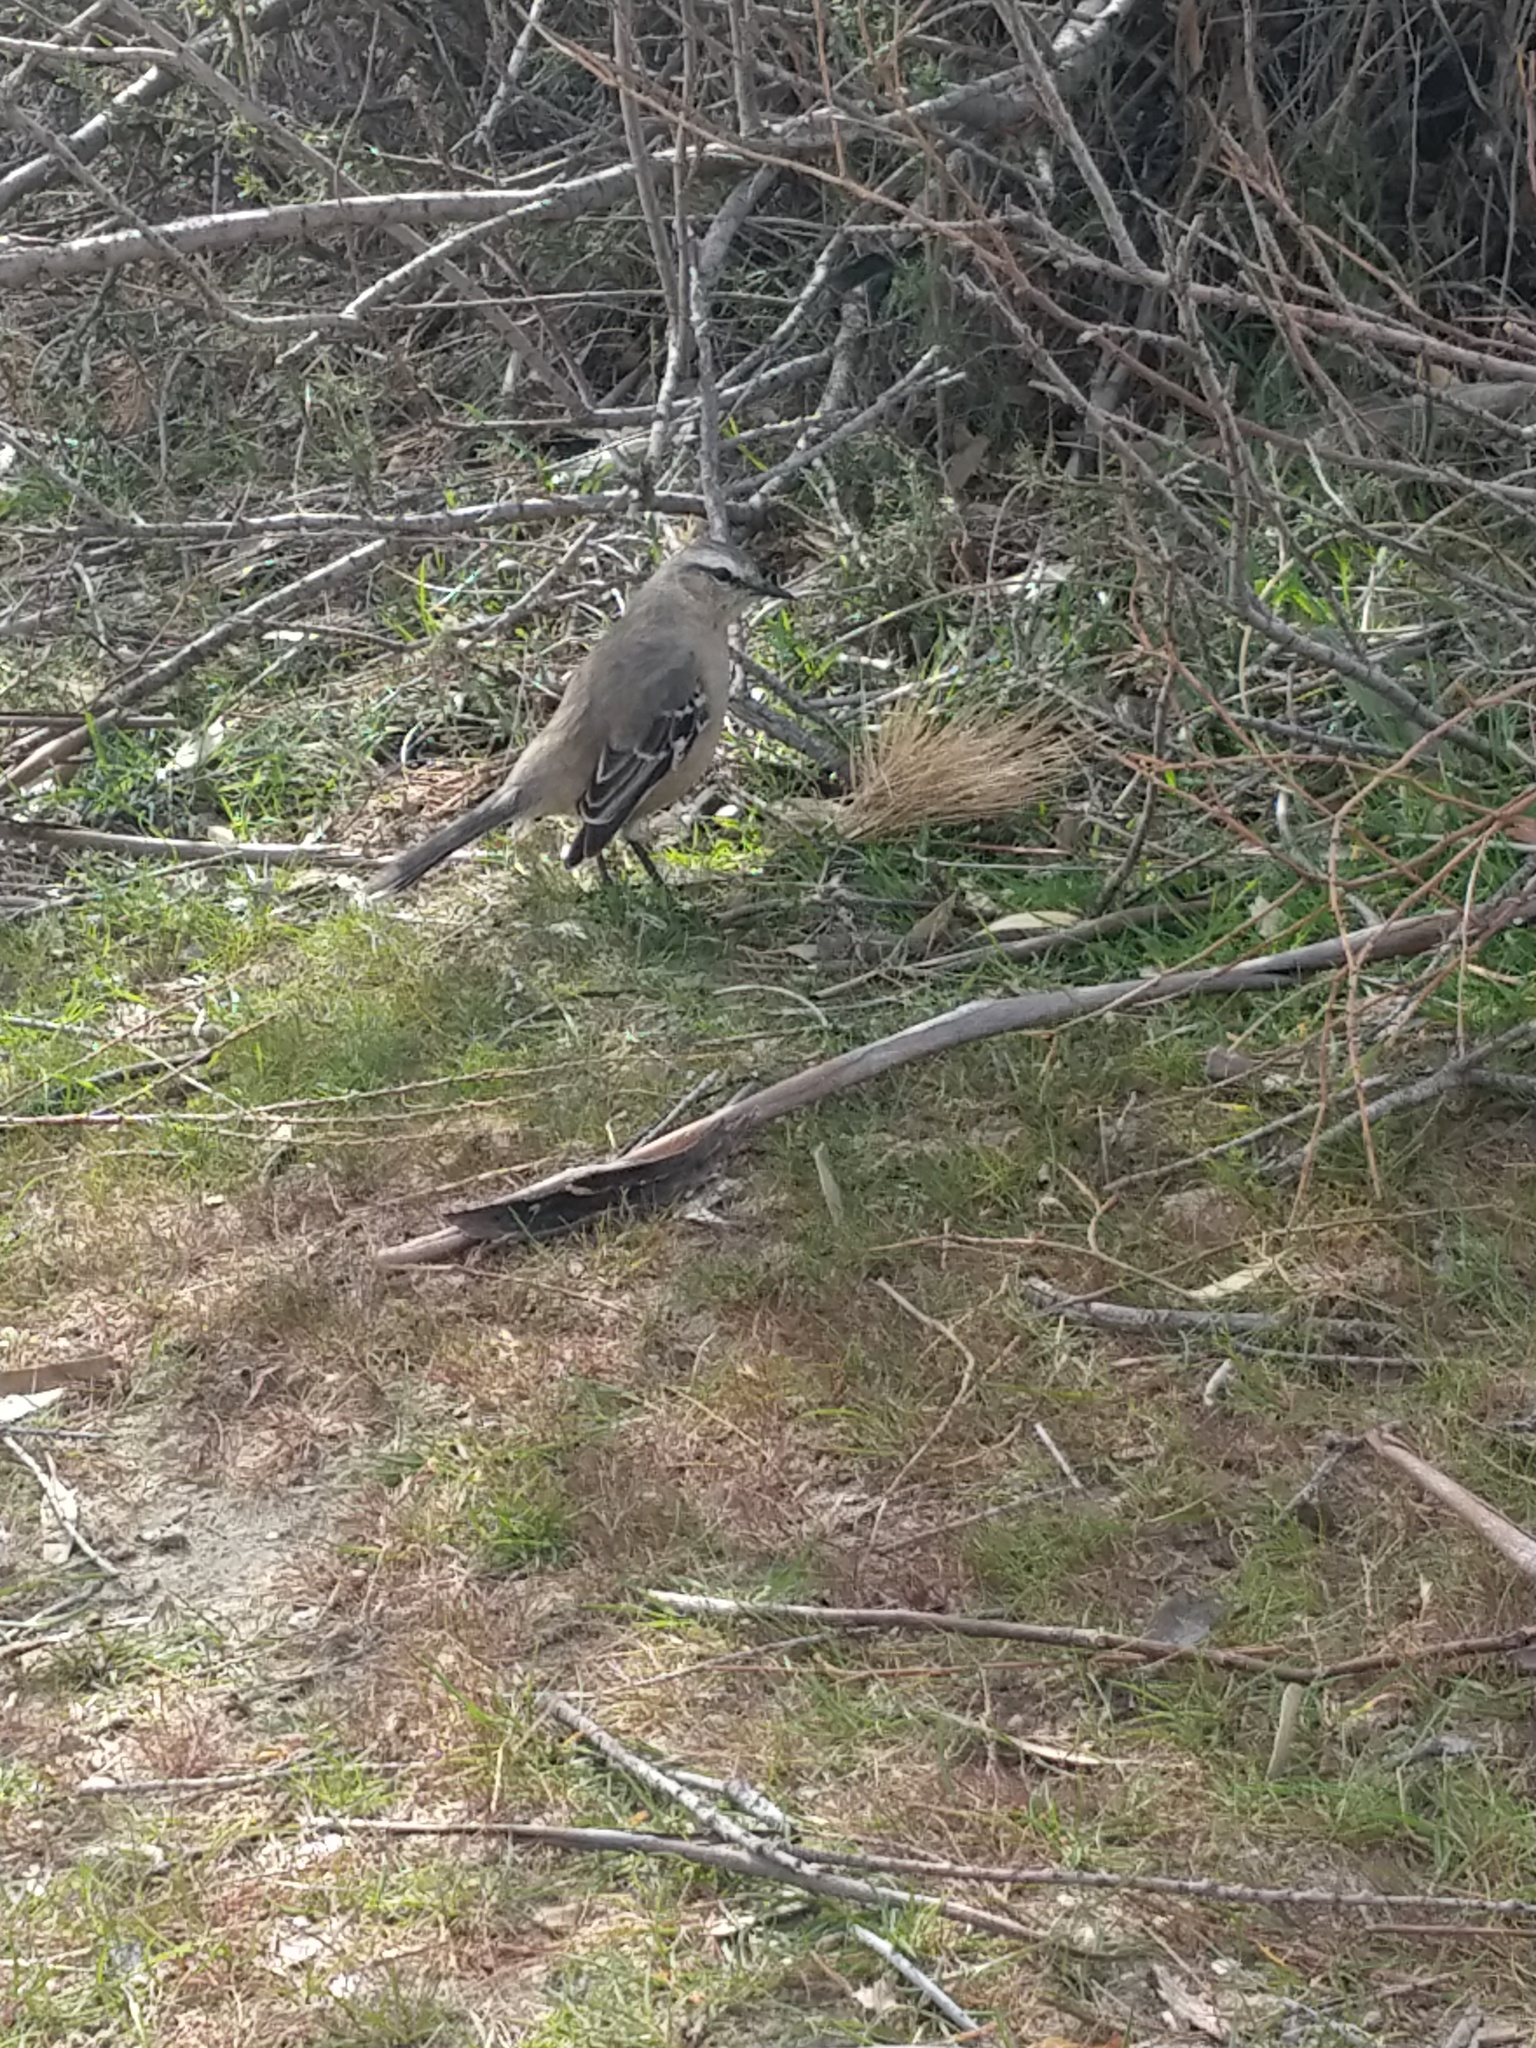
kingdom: Animalia
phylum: Chordata
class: Aves
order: Passeriformes
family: Mimidae
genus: Mimus
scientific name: Mimus patagonicus
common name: Patagonian mockingbird
